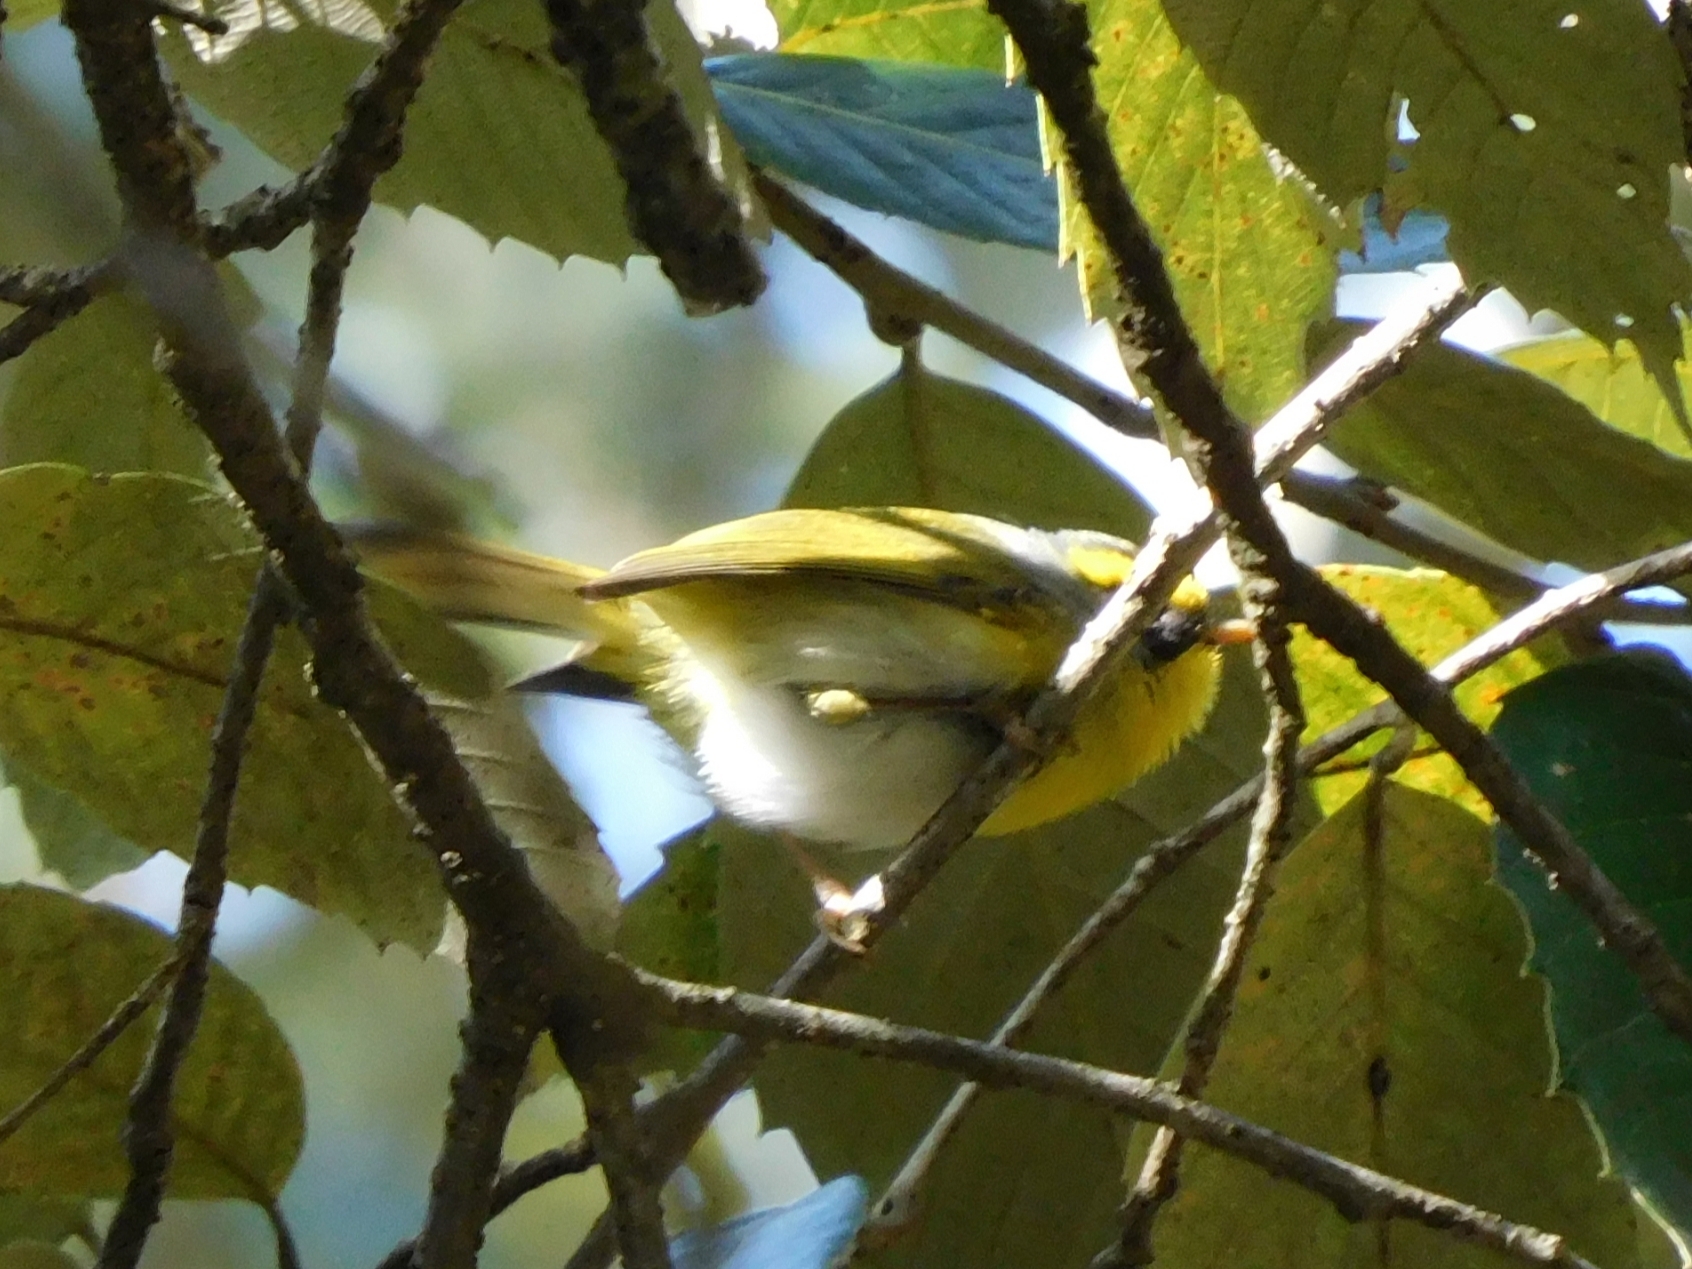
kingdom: Animalia
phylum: Chordata
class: Aves
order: Passeriformes
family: Cettiidae
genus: Abroscopus
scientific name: Abroscopus schisticeps
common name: Black-faced warbler
